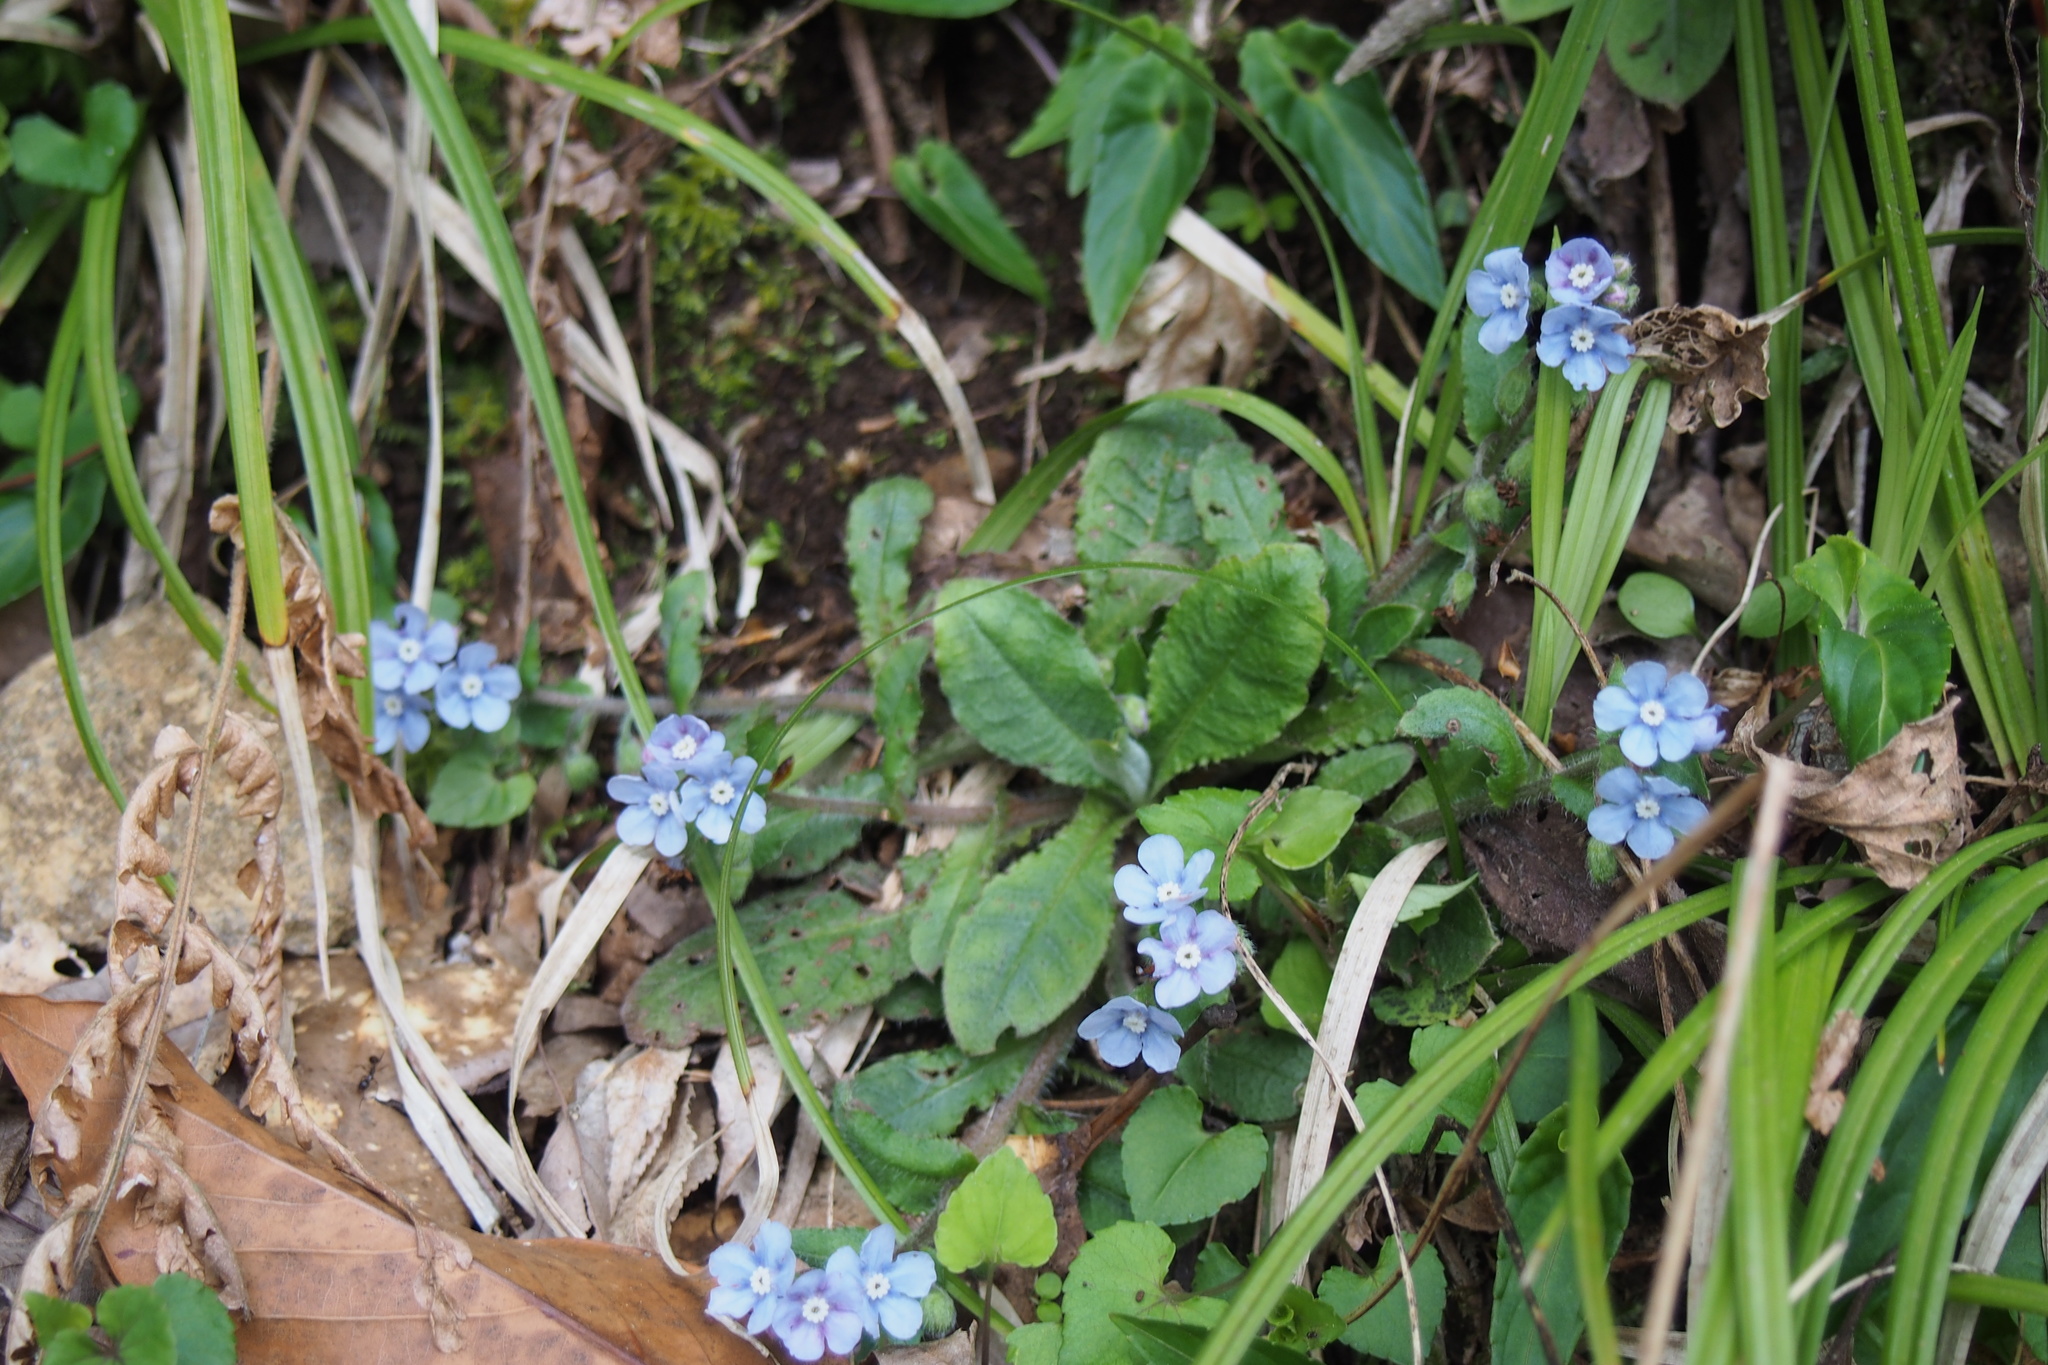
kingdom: Plantae
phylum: Tracheophyta
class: Magnoliopsida
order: Boraginales
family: Boraginaceae
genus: Nihon
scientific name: Nihon japonicum
